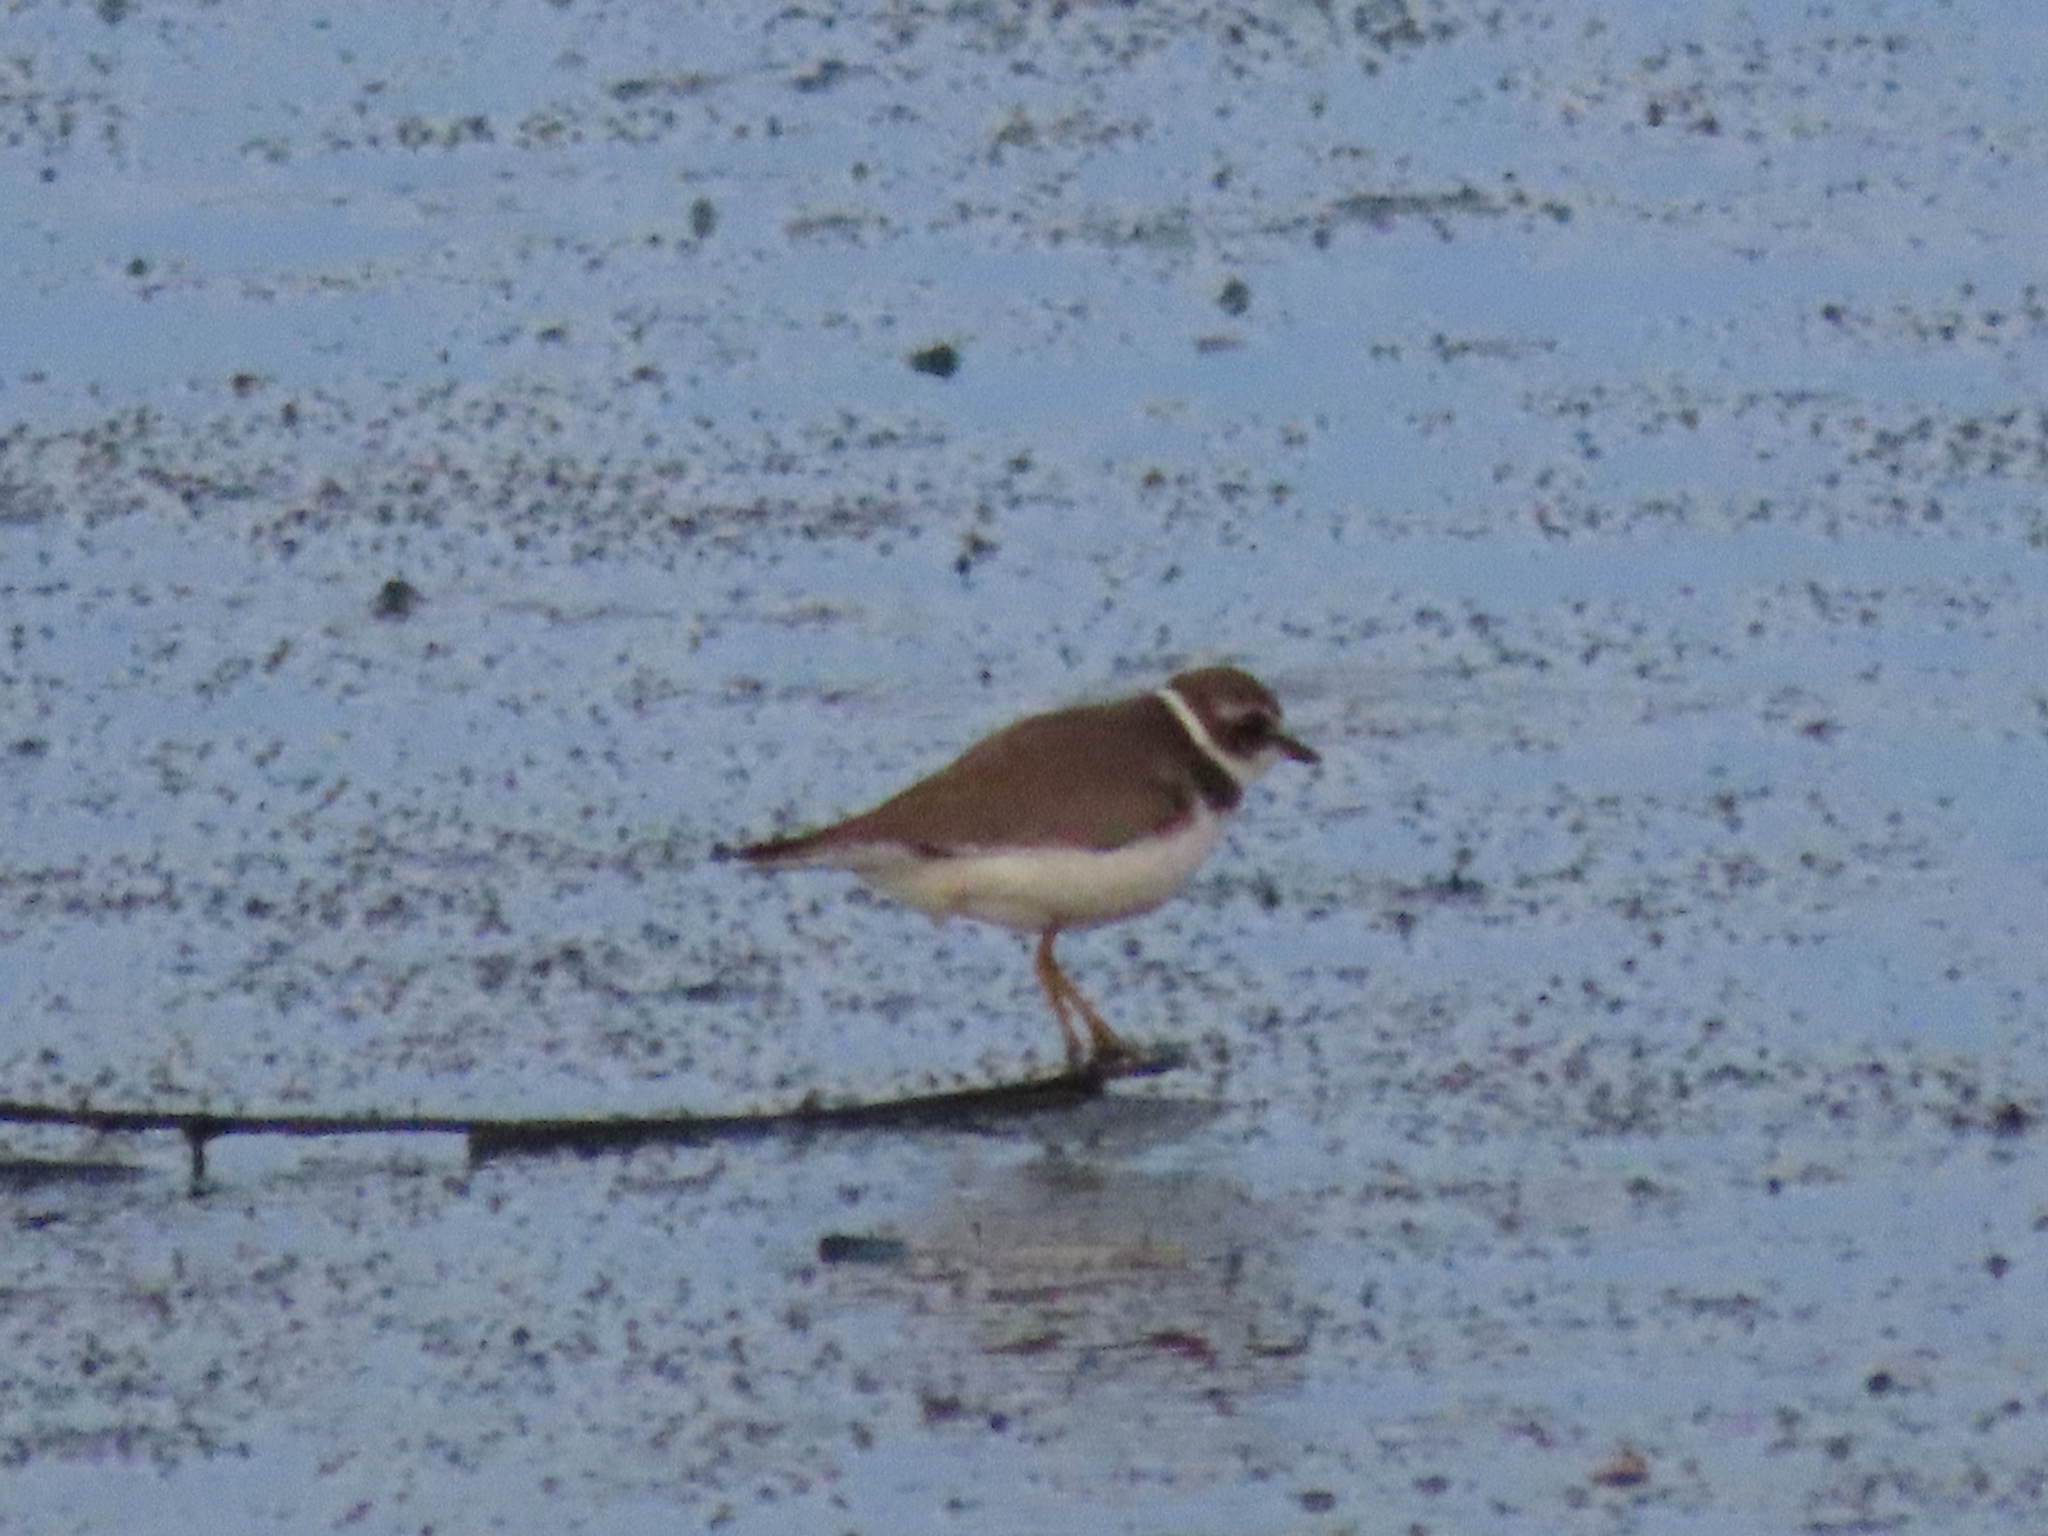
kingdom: Animalia
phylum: Chordata
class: Aves
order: Charadriiformes
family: Charadriidae
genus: Charadrius
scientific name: Charadrius semipalmatus
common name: Semipalmated plover
